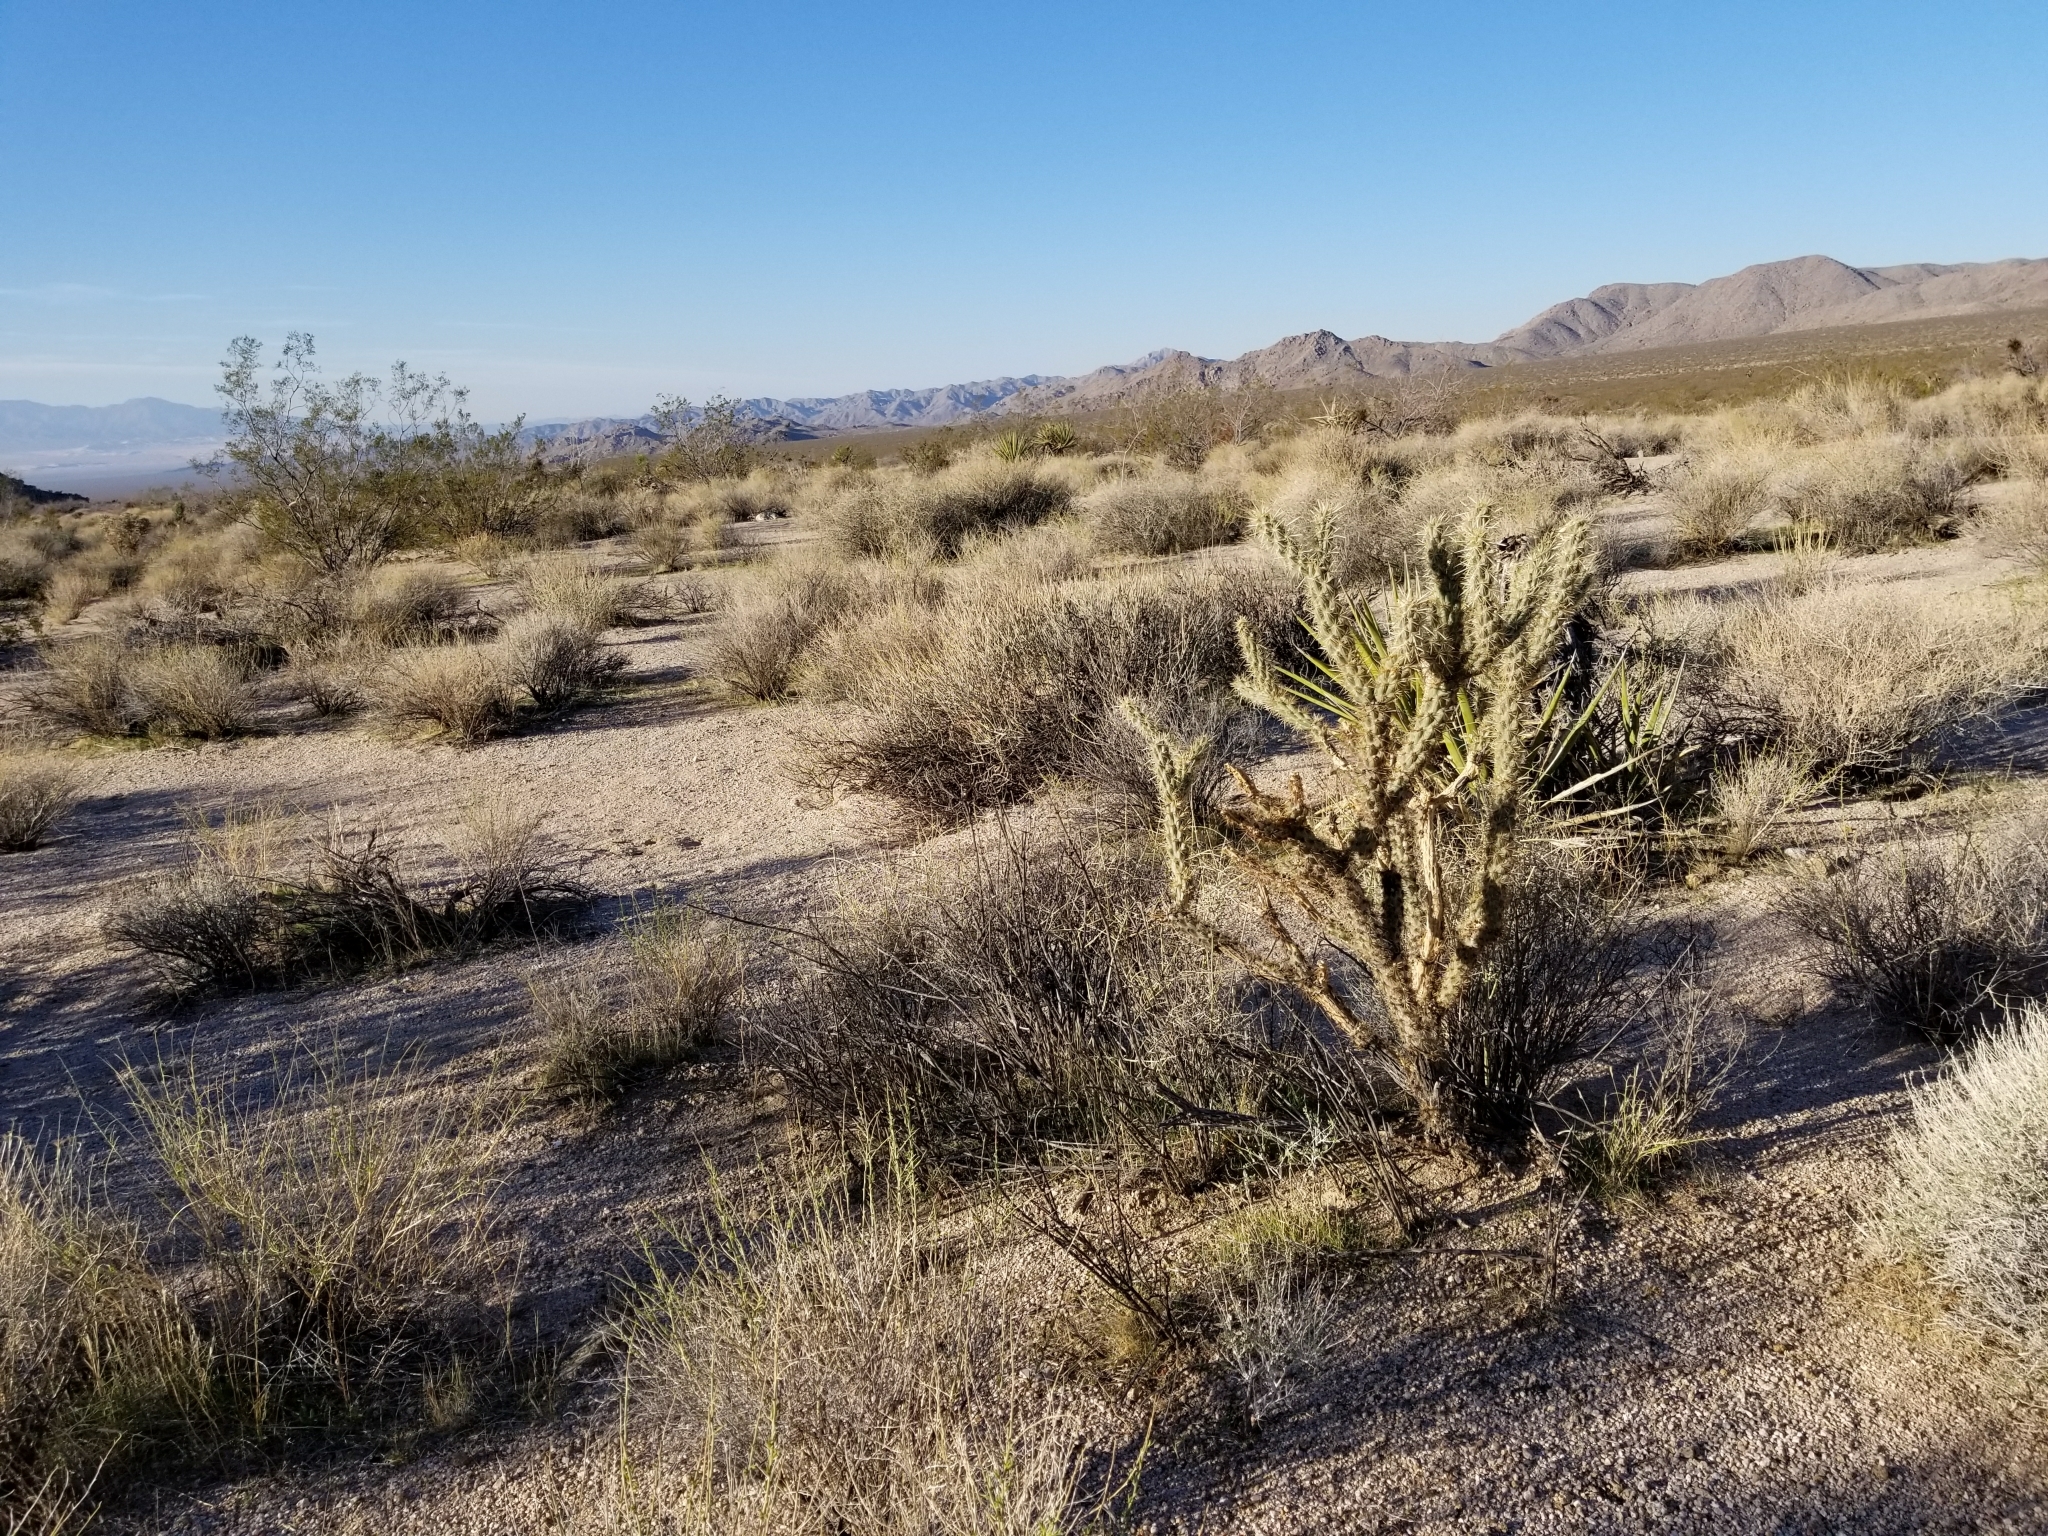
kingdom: Plantae
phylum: Tracheophyta
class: Magnoliopsida
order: Caryophyllales
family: Cactaceae
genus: Cylindropuntia
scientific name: Cylindropuntia acanthocarpa
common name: Buckhorn cholla
